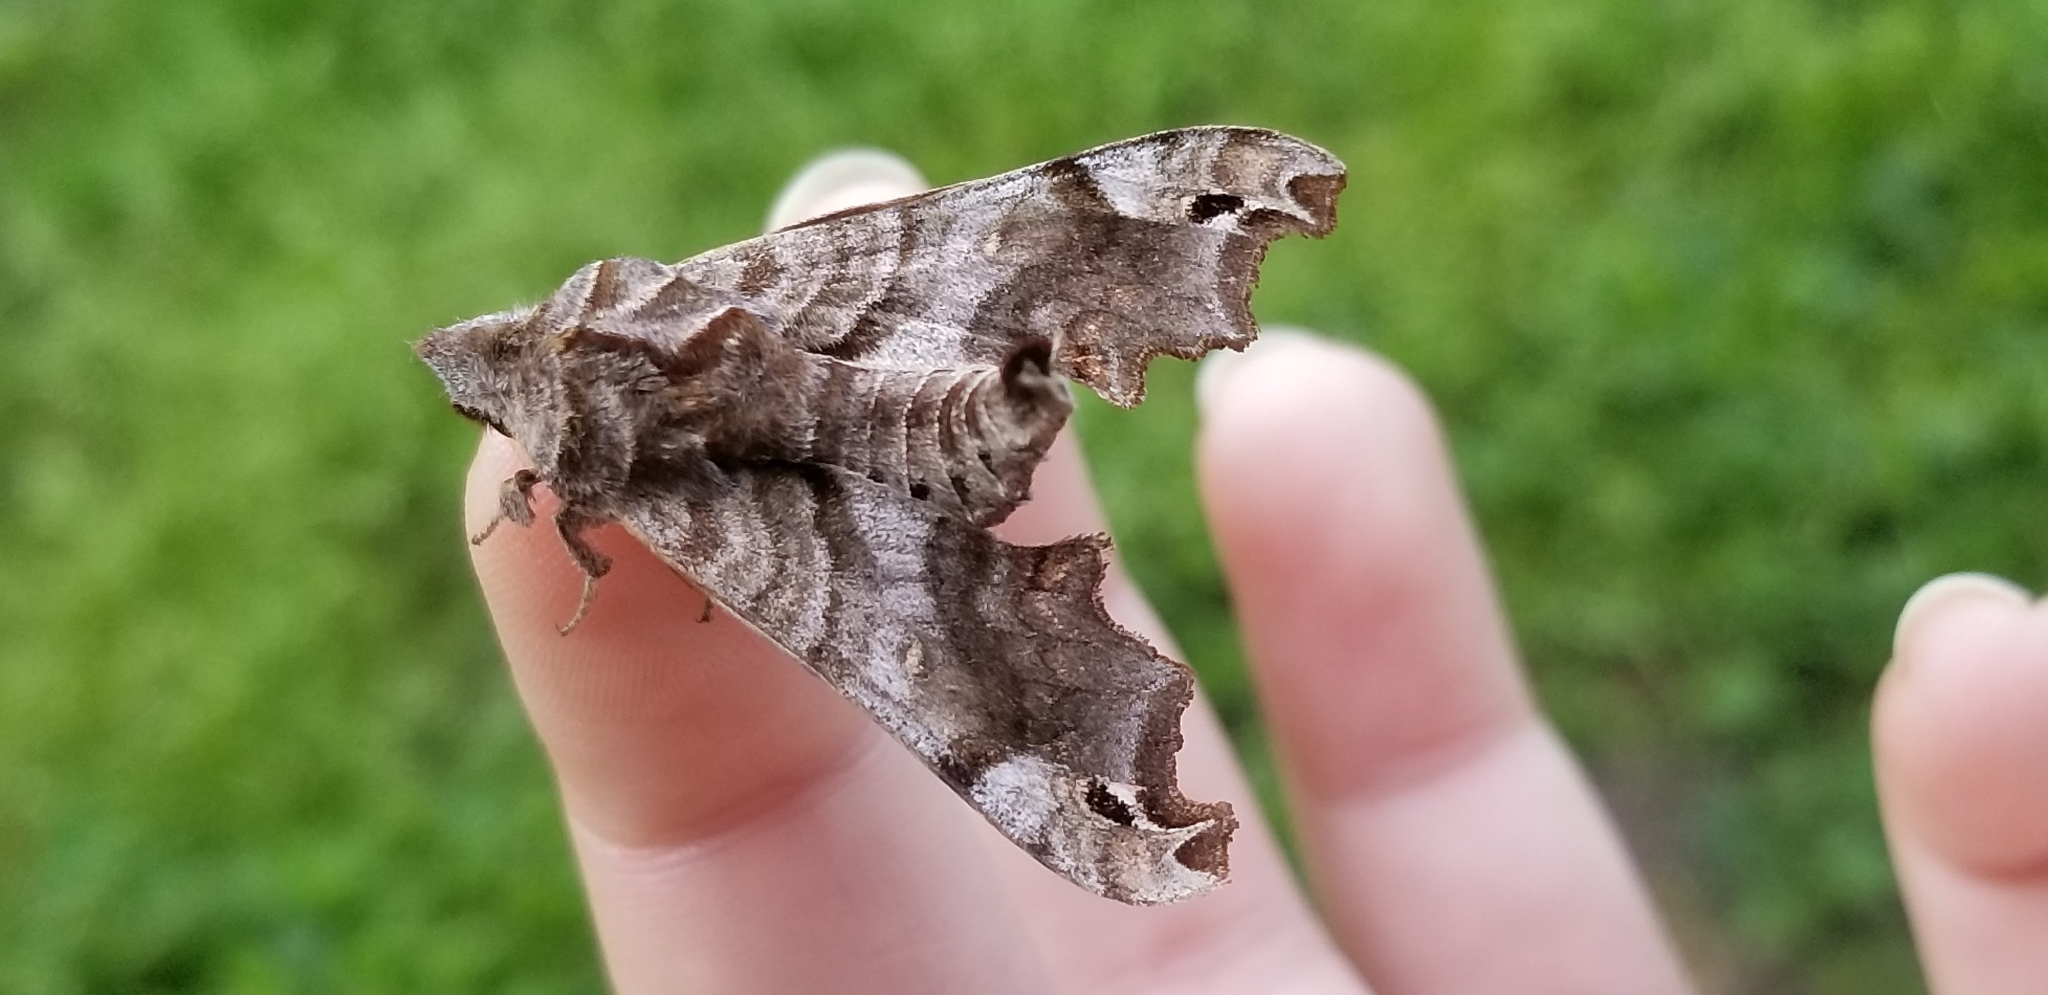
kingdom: Animalia
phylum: Arthropoda
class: Insecta
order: Lepidoptera
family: Sphingidae
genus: Deidamia
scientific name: Deidamia inscriptum
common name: Lettered sphinx
